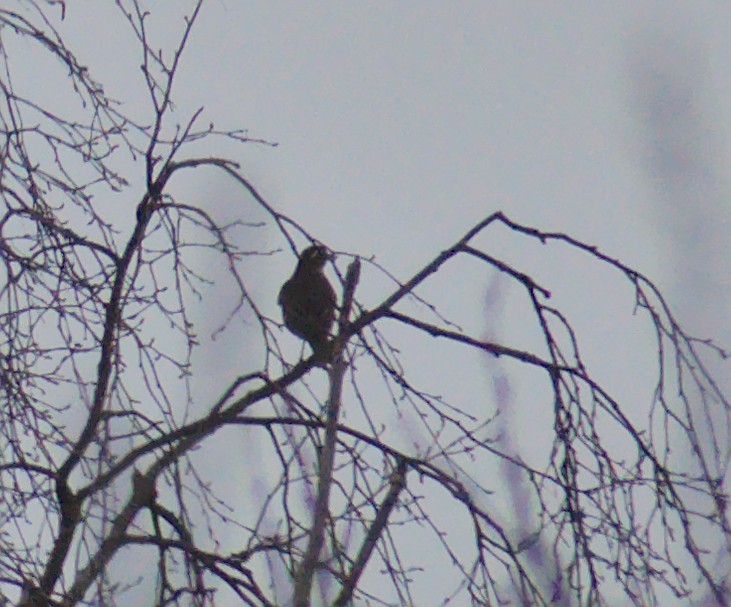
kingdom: Animalia
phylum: Chordata
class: Aves
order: Passeriformes
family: Turdidae
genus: Turdus
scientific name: Turdus iliacus
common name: Redwing
